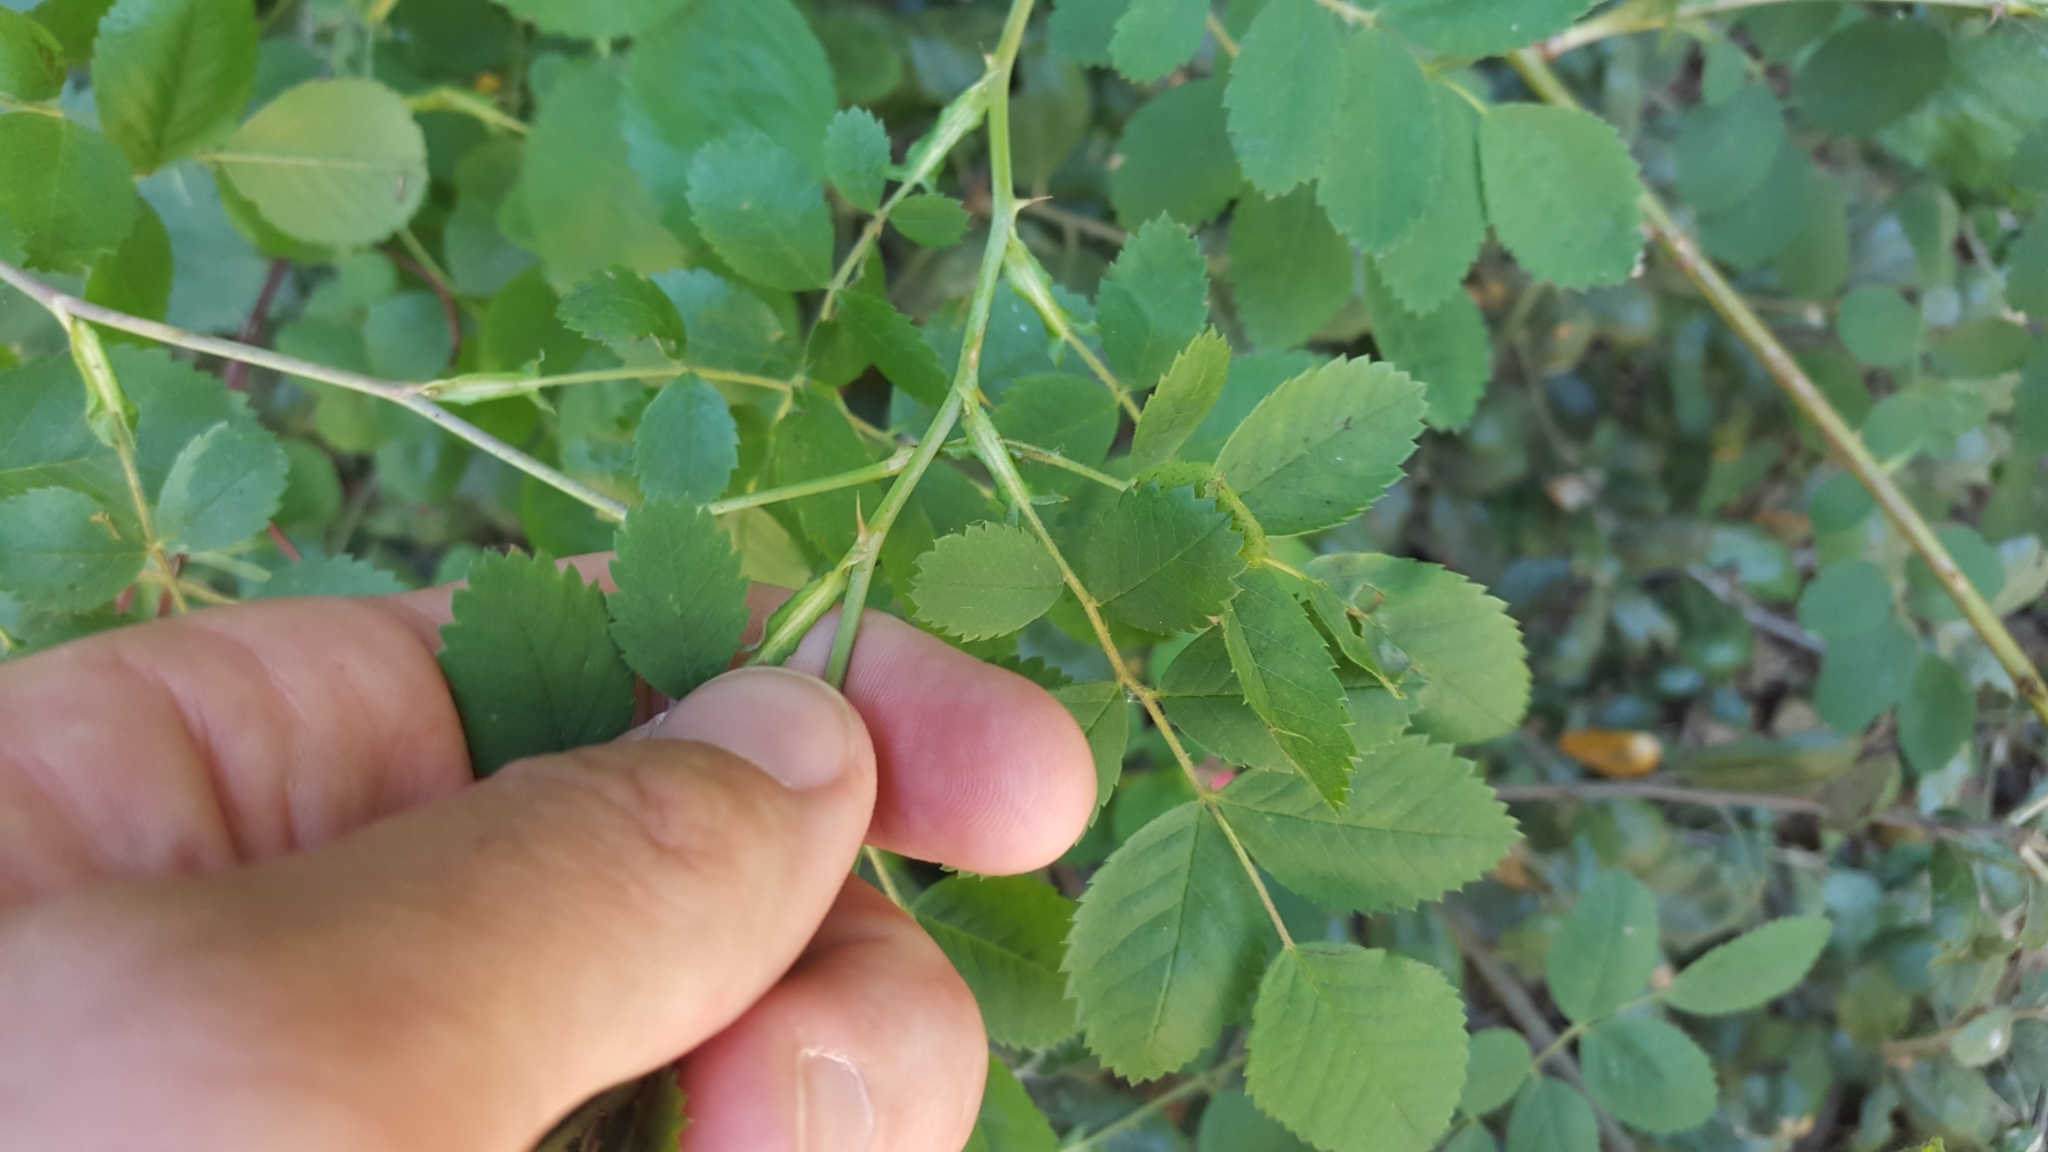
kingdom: Plantae
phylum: Tracheophyta
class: Magnoliopsida
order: Rosales
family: Rosaceae
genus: Rosa
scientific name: Rosa californica
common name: California rose
